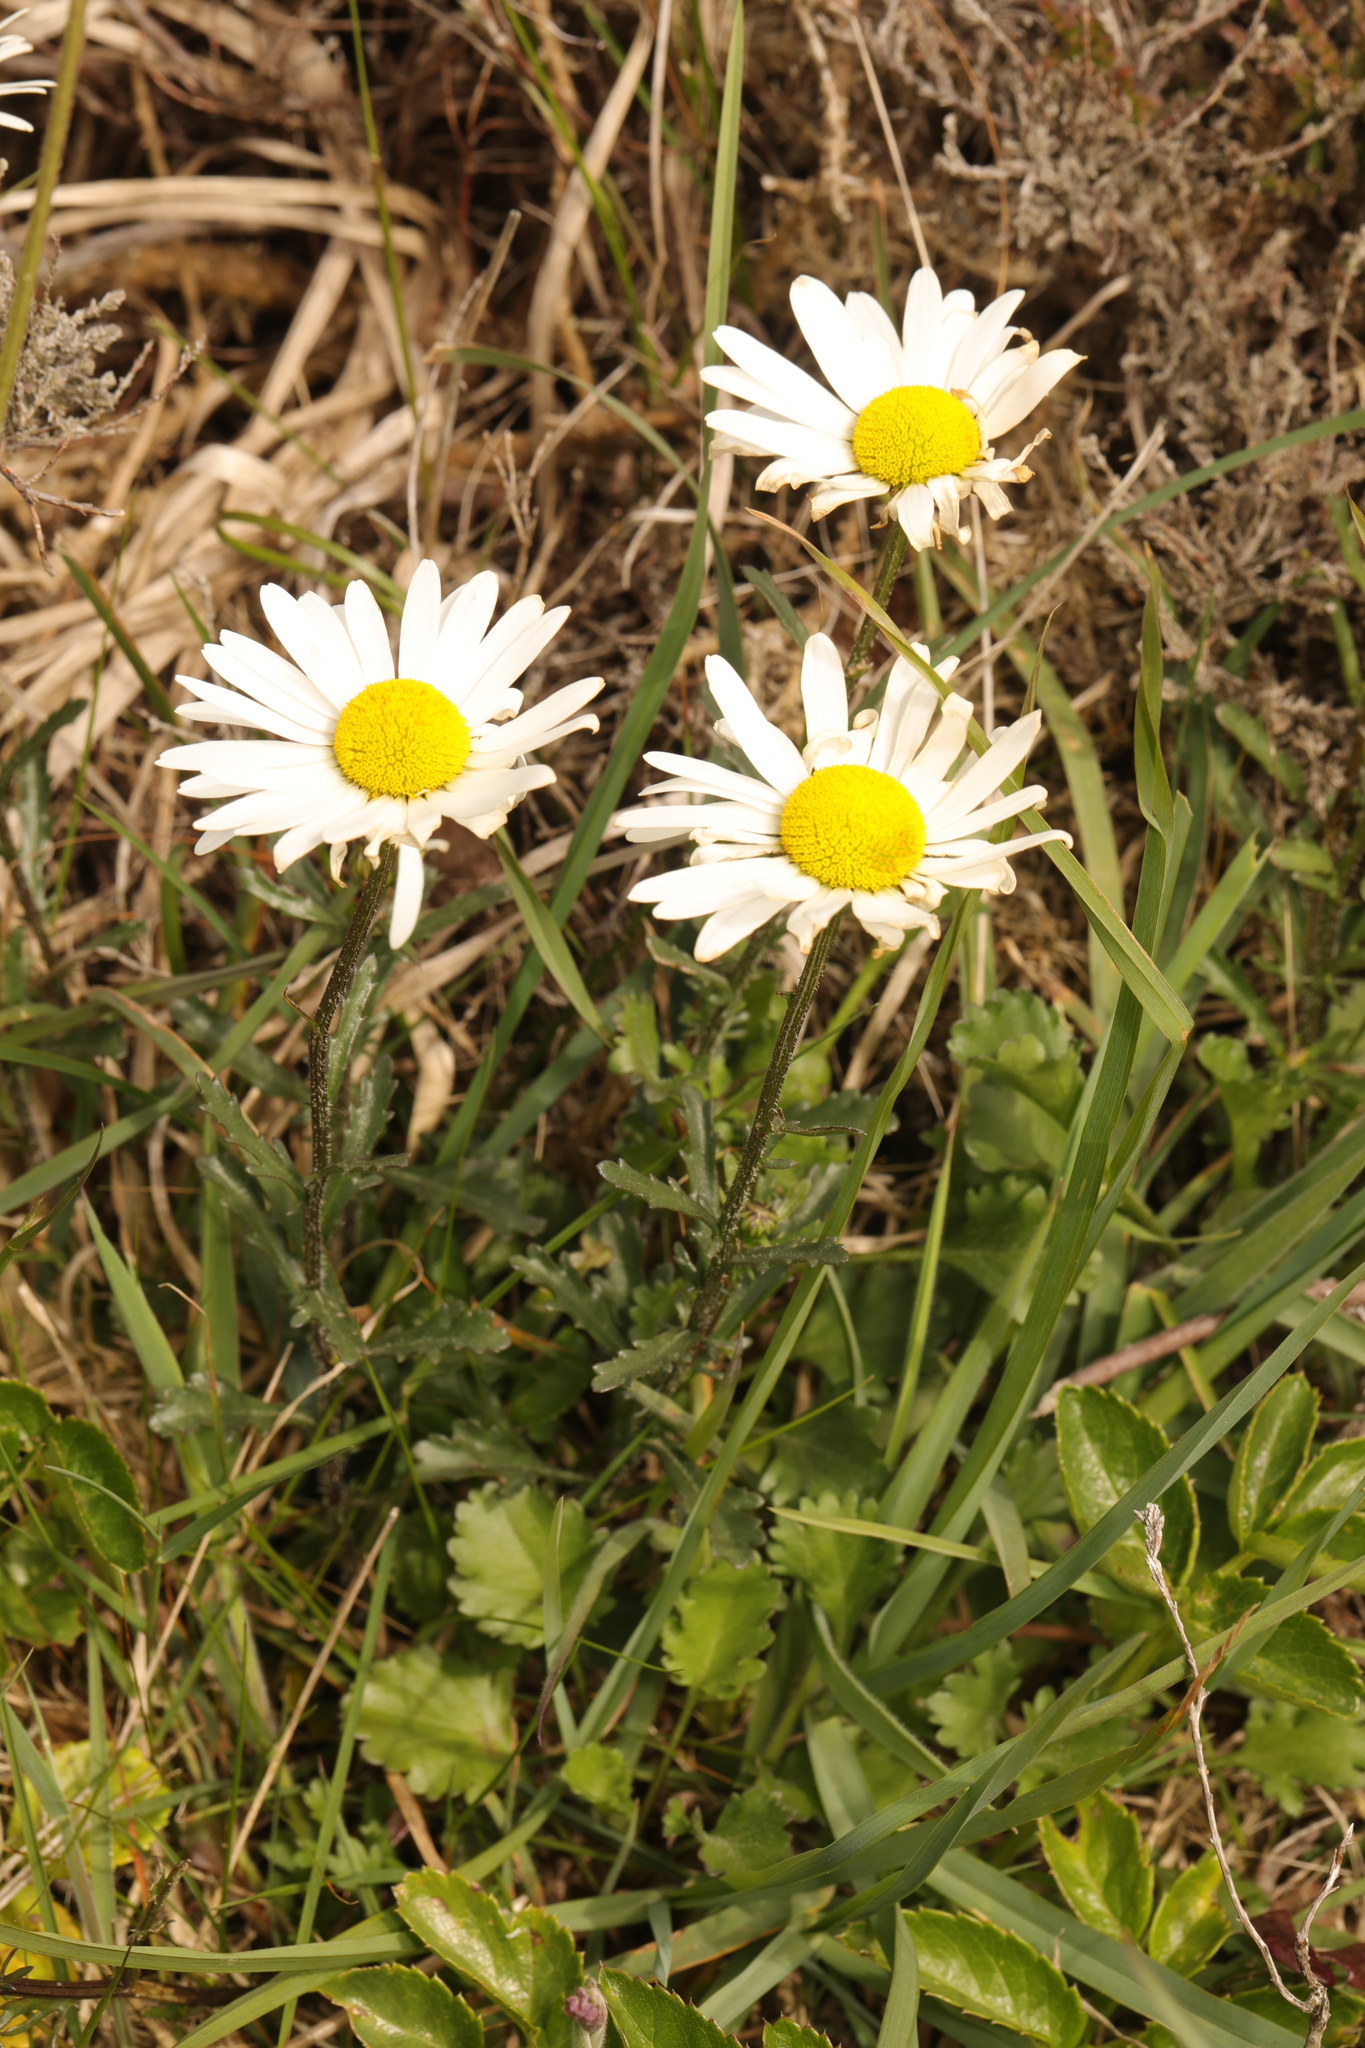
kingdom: Plantae
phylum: Tracheophyta
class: Magnoliopsida
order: Asterales
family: Asteraceae
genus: Leucanthemum
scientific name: Leucanthemum vulgare
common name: Oxeye daisy
